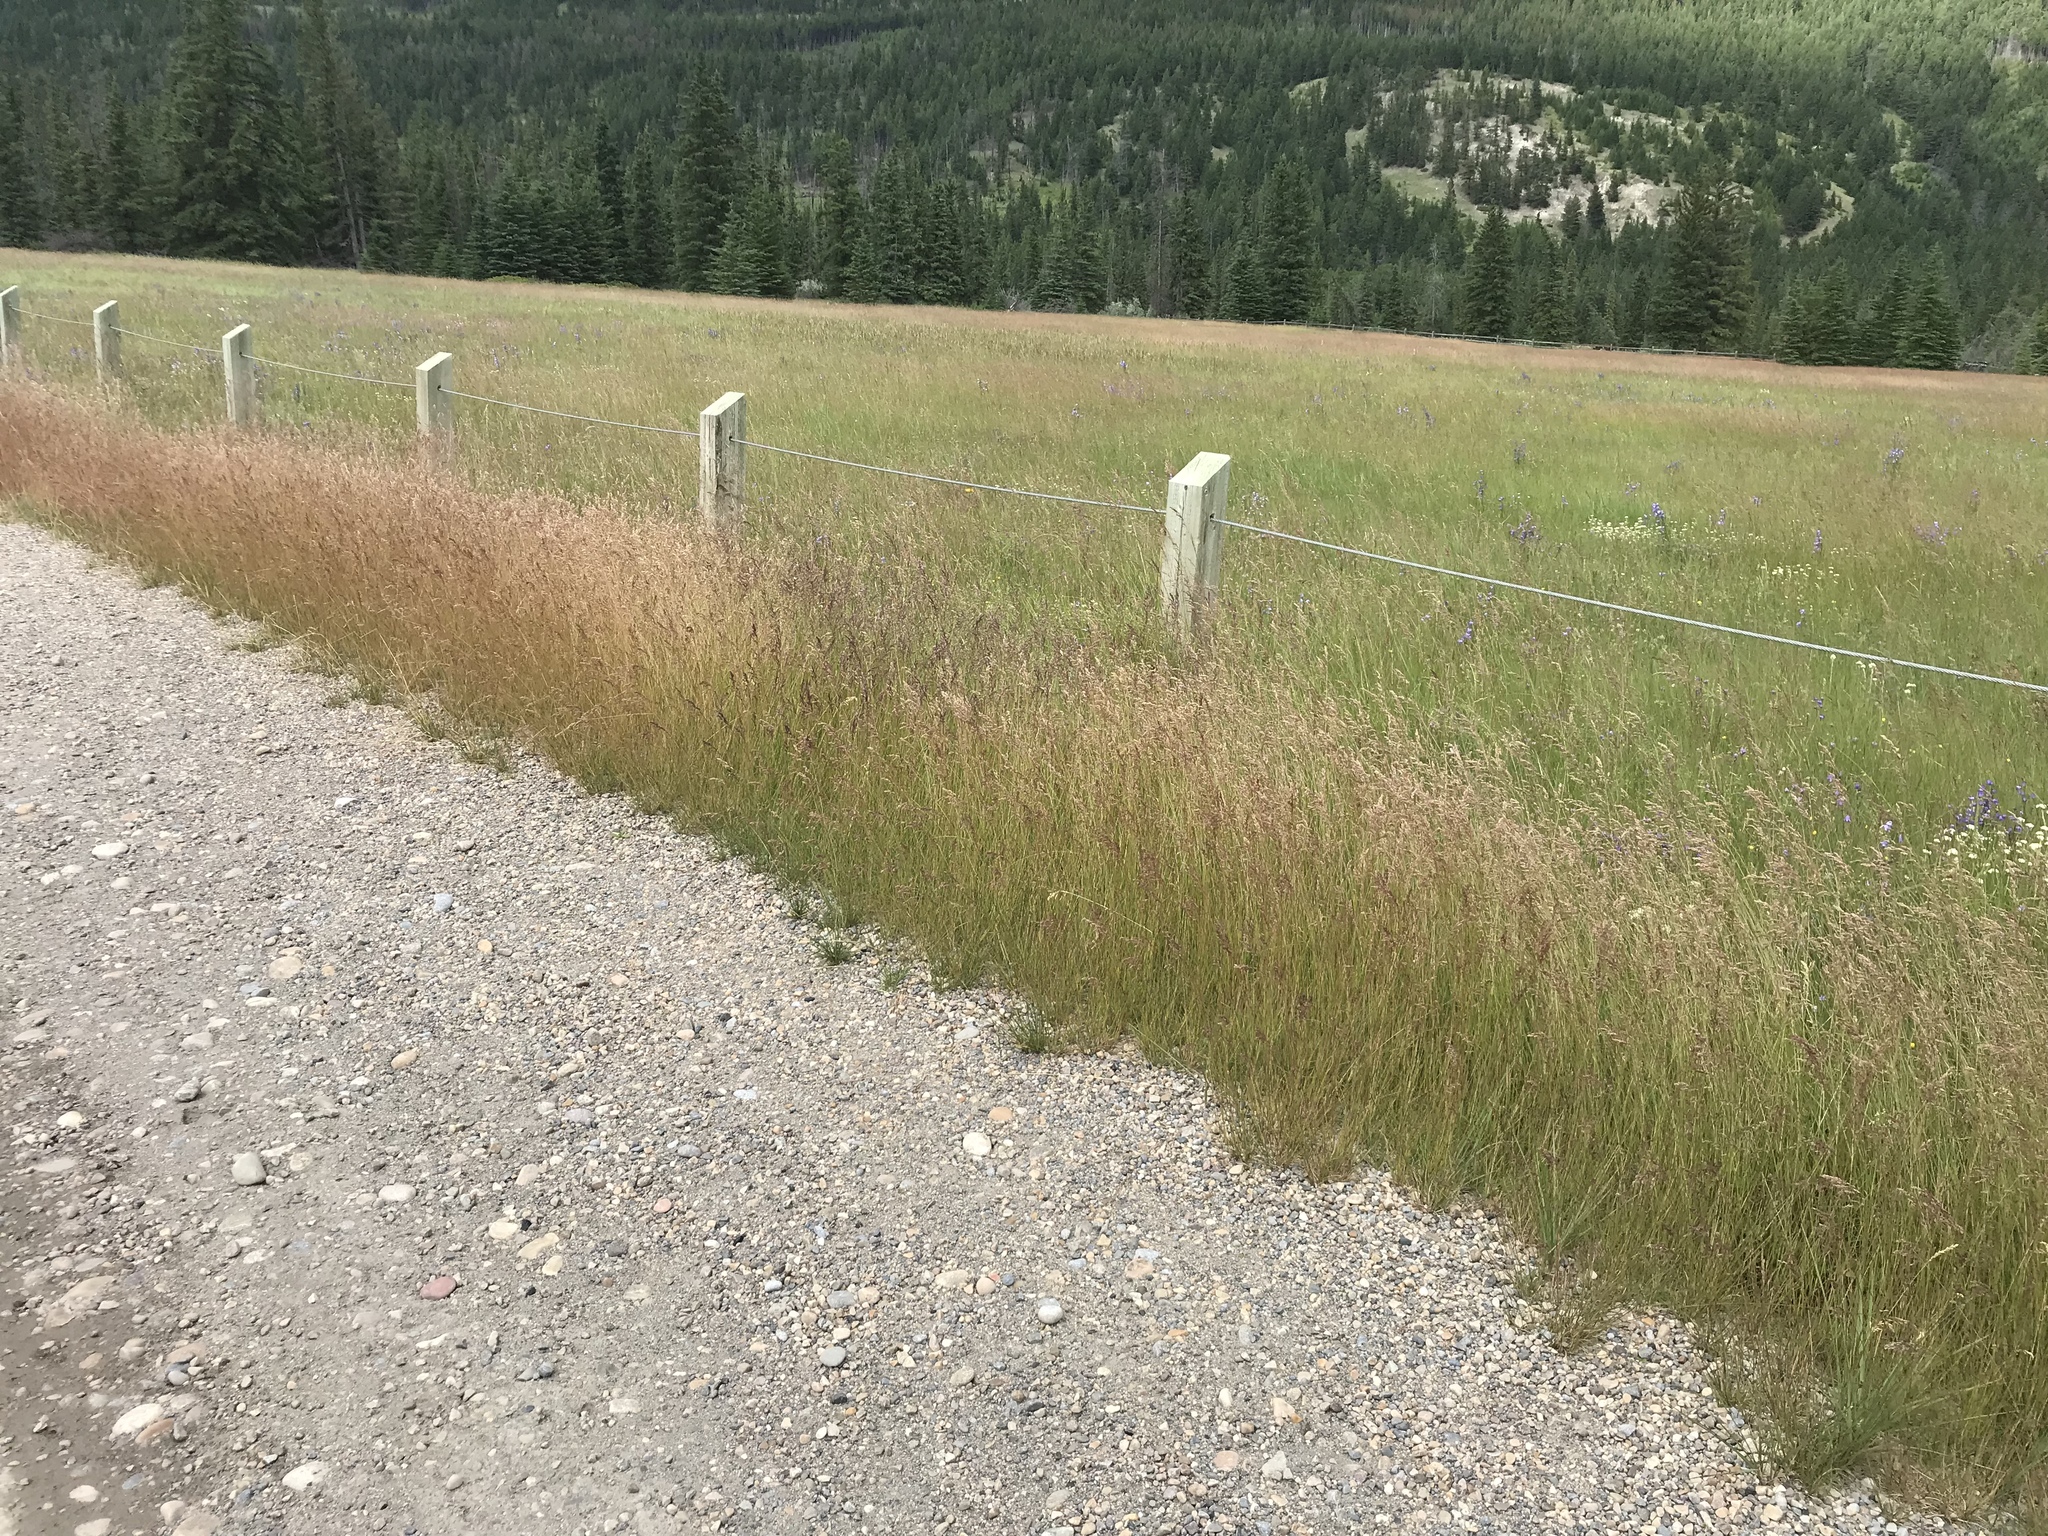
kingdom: Plantae
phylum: Tracheophyta
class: Liliopsida
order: Poales
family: Poaceae
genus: Poa
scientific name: Poa pratensis
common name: Kentucky bluegrass
